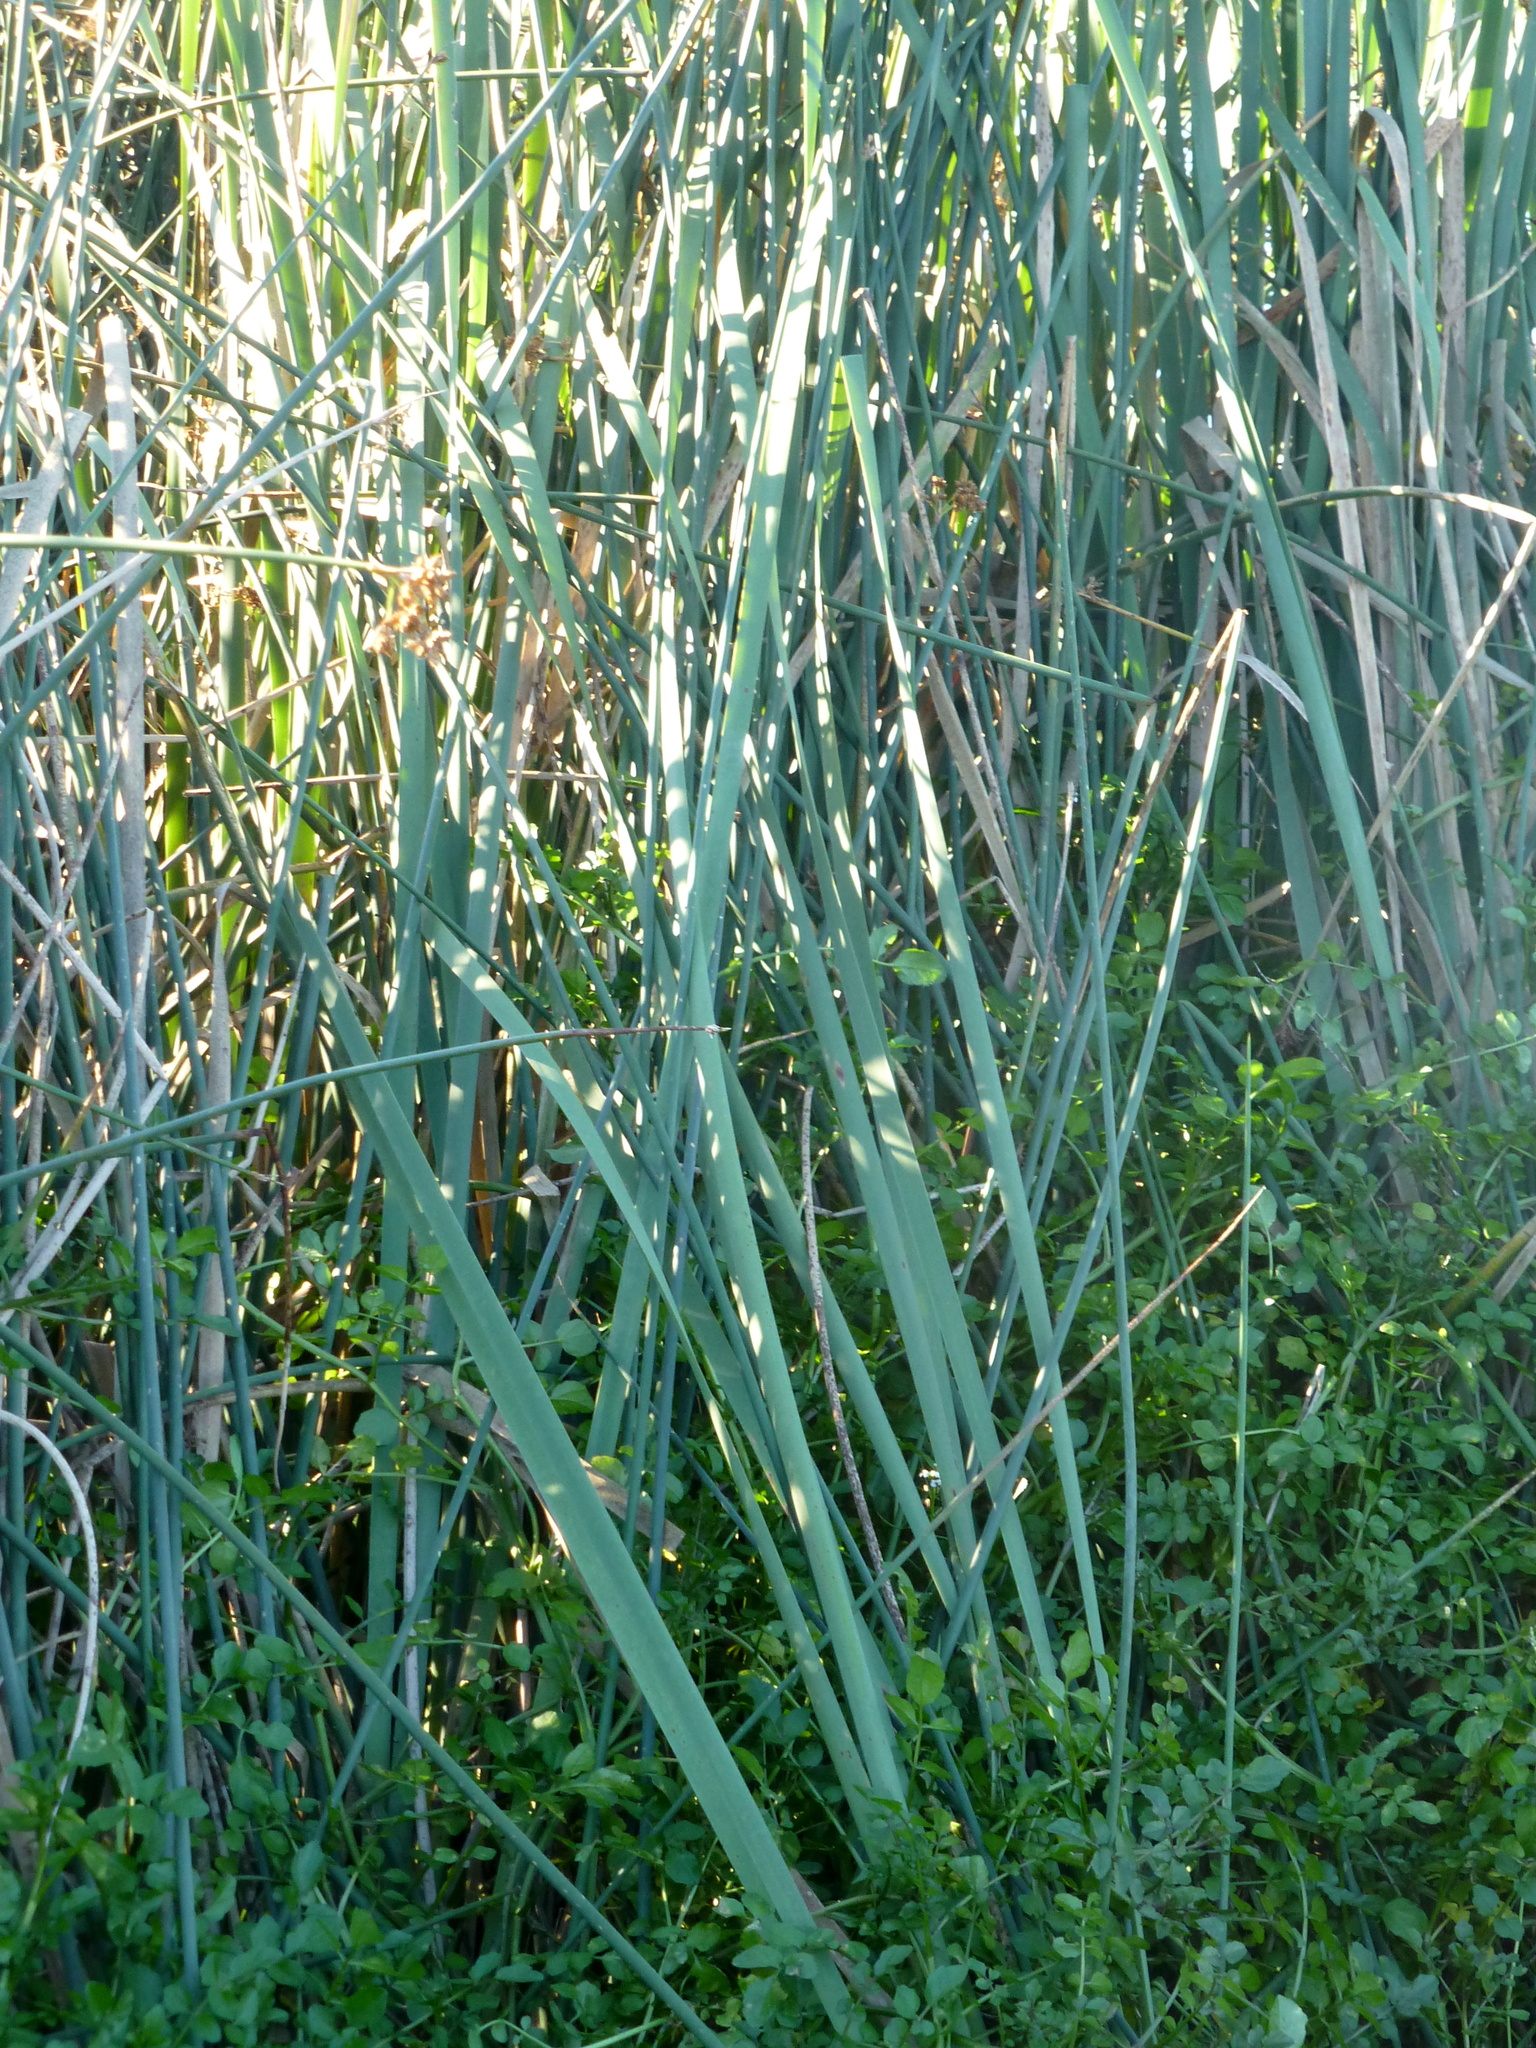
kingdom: Plantae
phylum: Tracheophyta
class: Liliopsida
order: Poales
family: Typhaceae
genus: Typha
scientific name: Typha orientalis
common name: Bullrush
